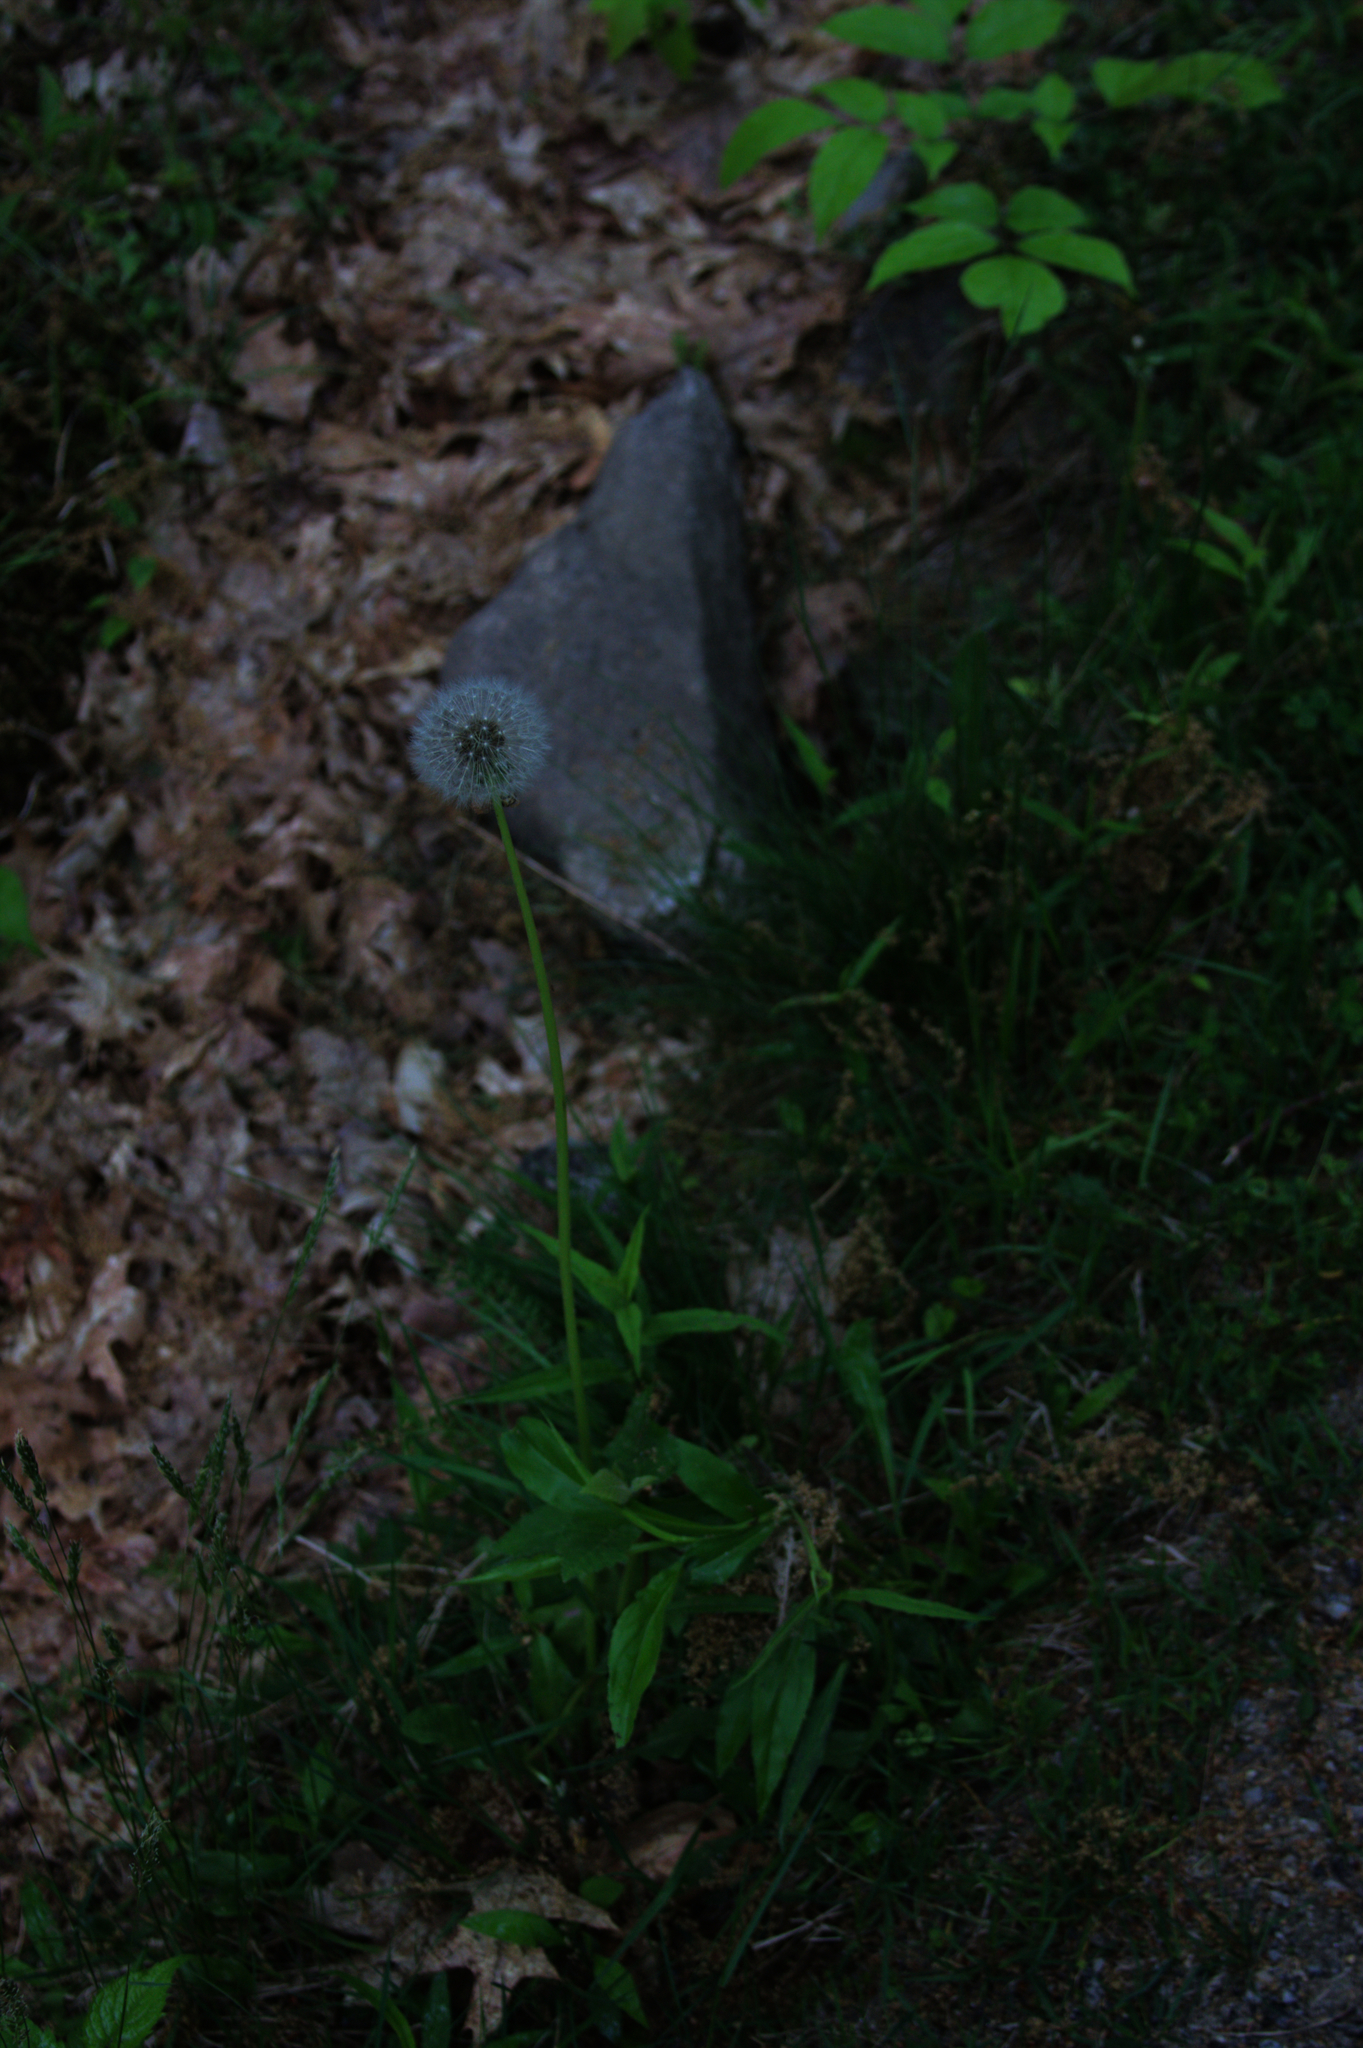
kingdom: Plantae
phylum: Tracheophyta
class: Magnoliopsida
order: Asterales
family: Asteraceae
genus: Taraxacum
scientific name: Taraxacum officinale
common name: Common dandelion
